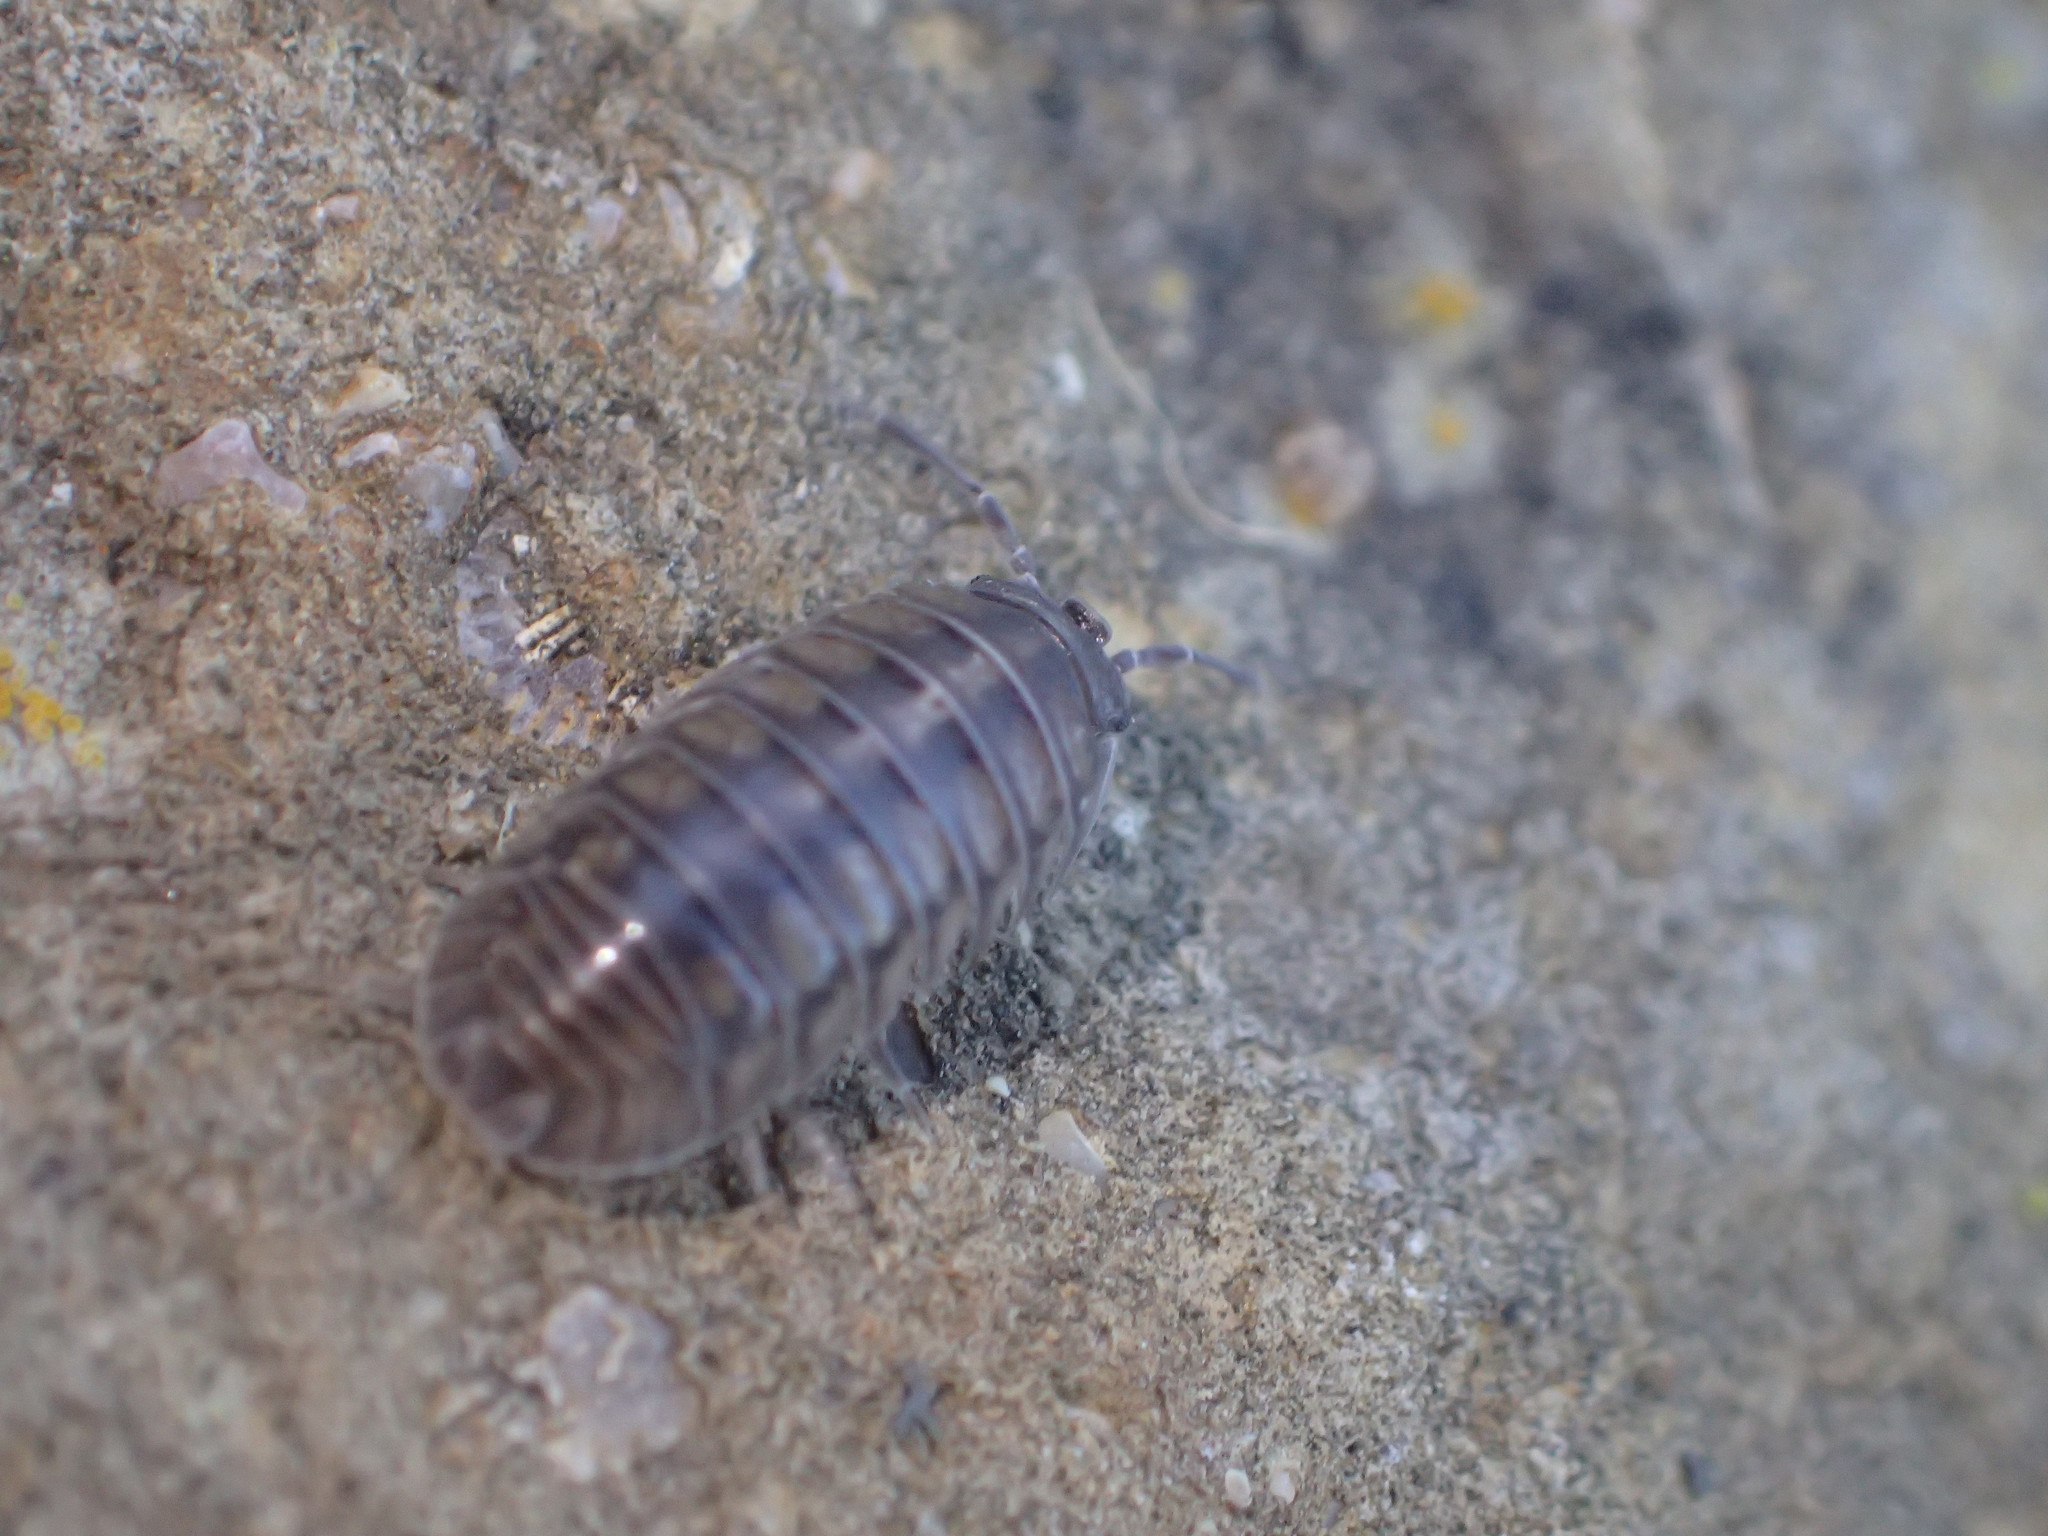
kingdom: Animalia
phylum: Arthropoda
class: Malacostraca
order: Isopoda
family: Armadillidiidae
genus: Armadillidium
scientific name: Armadillidium nasatum
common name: Isopod
